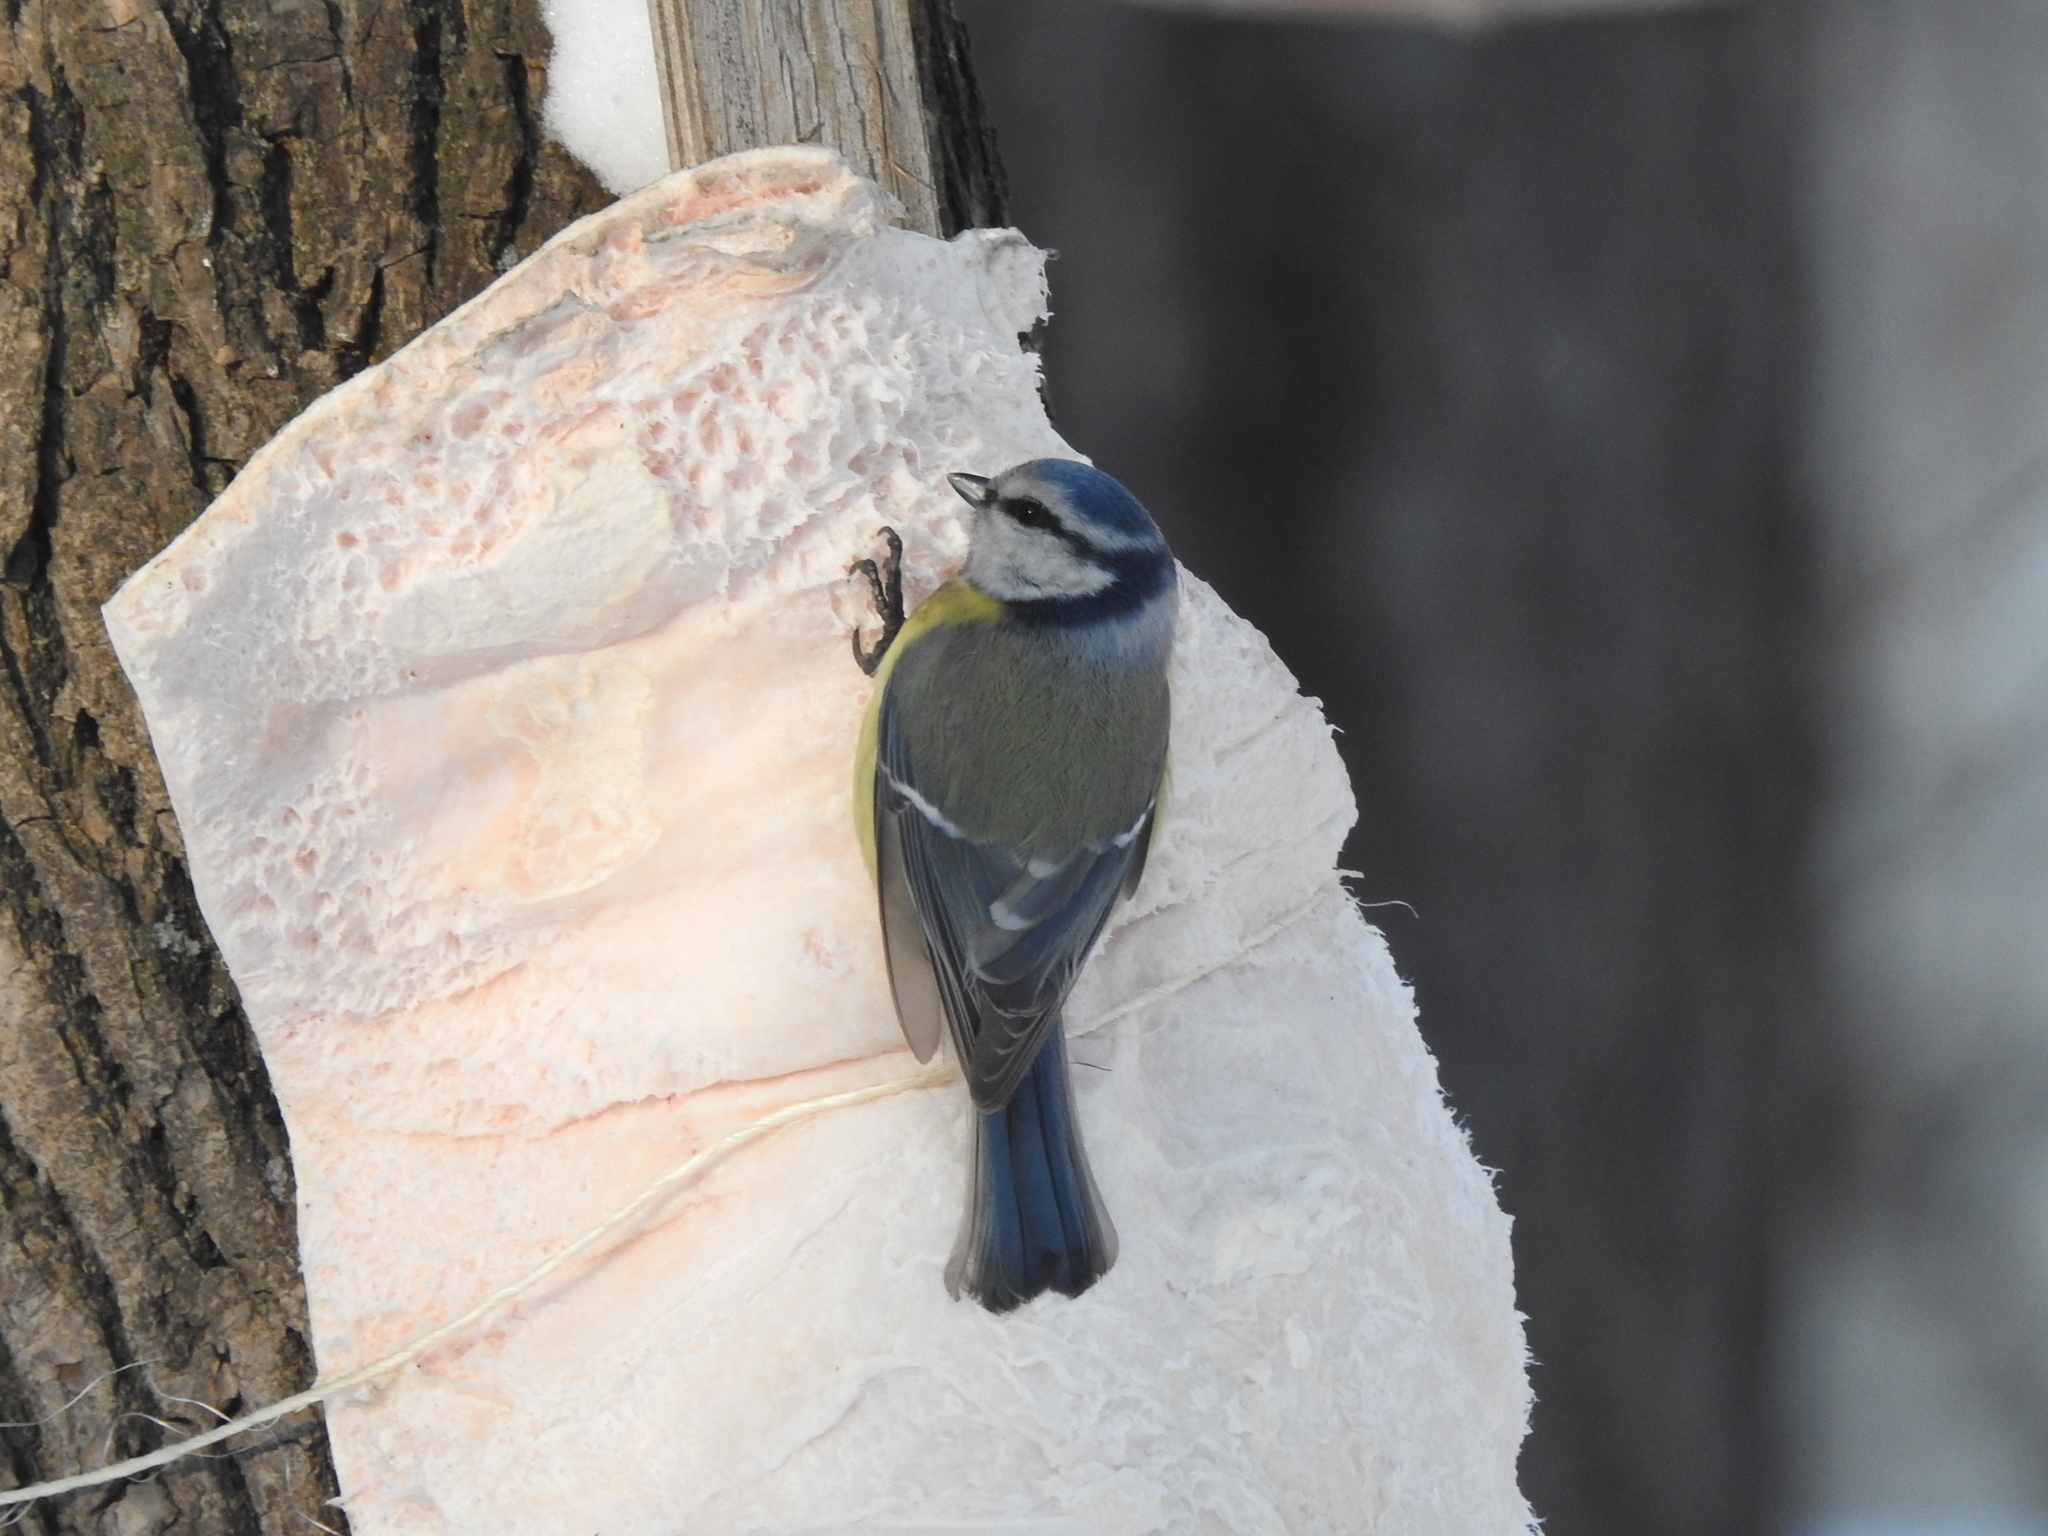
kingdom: Animalia
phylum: Chordata
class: Aves
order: Passeriformes
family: Paridae
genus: Cyanistes
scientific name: Cyanistes caeruleus
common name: Eurasian blue tit
